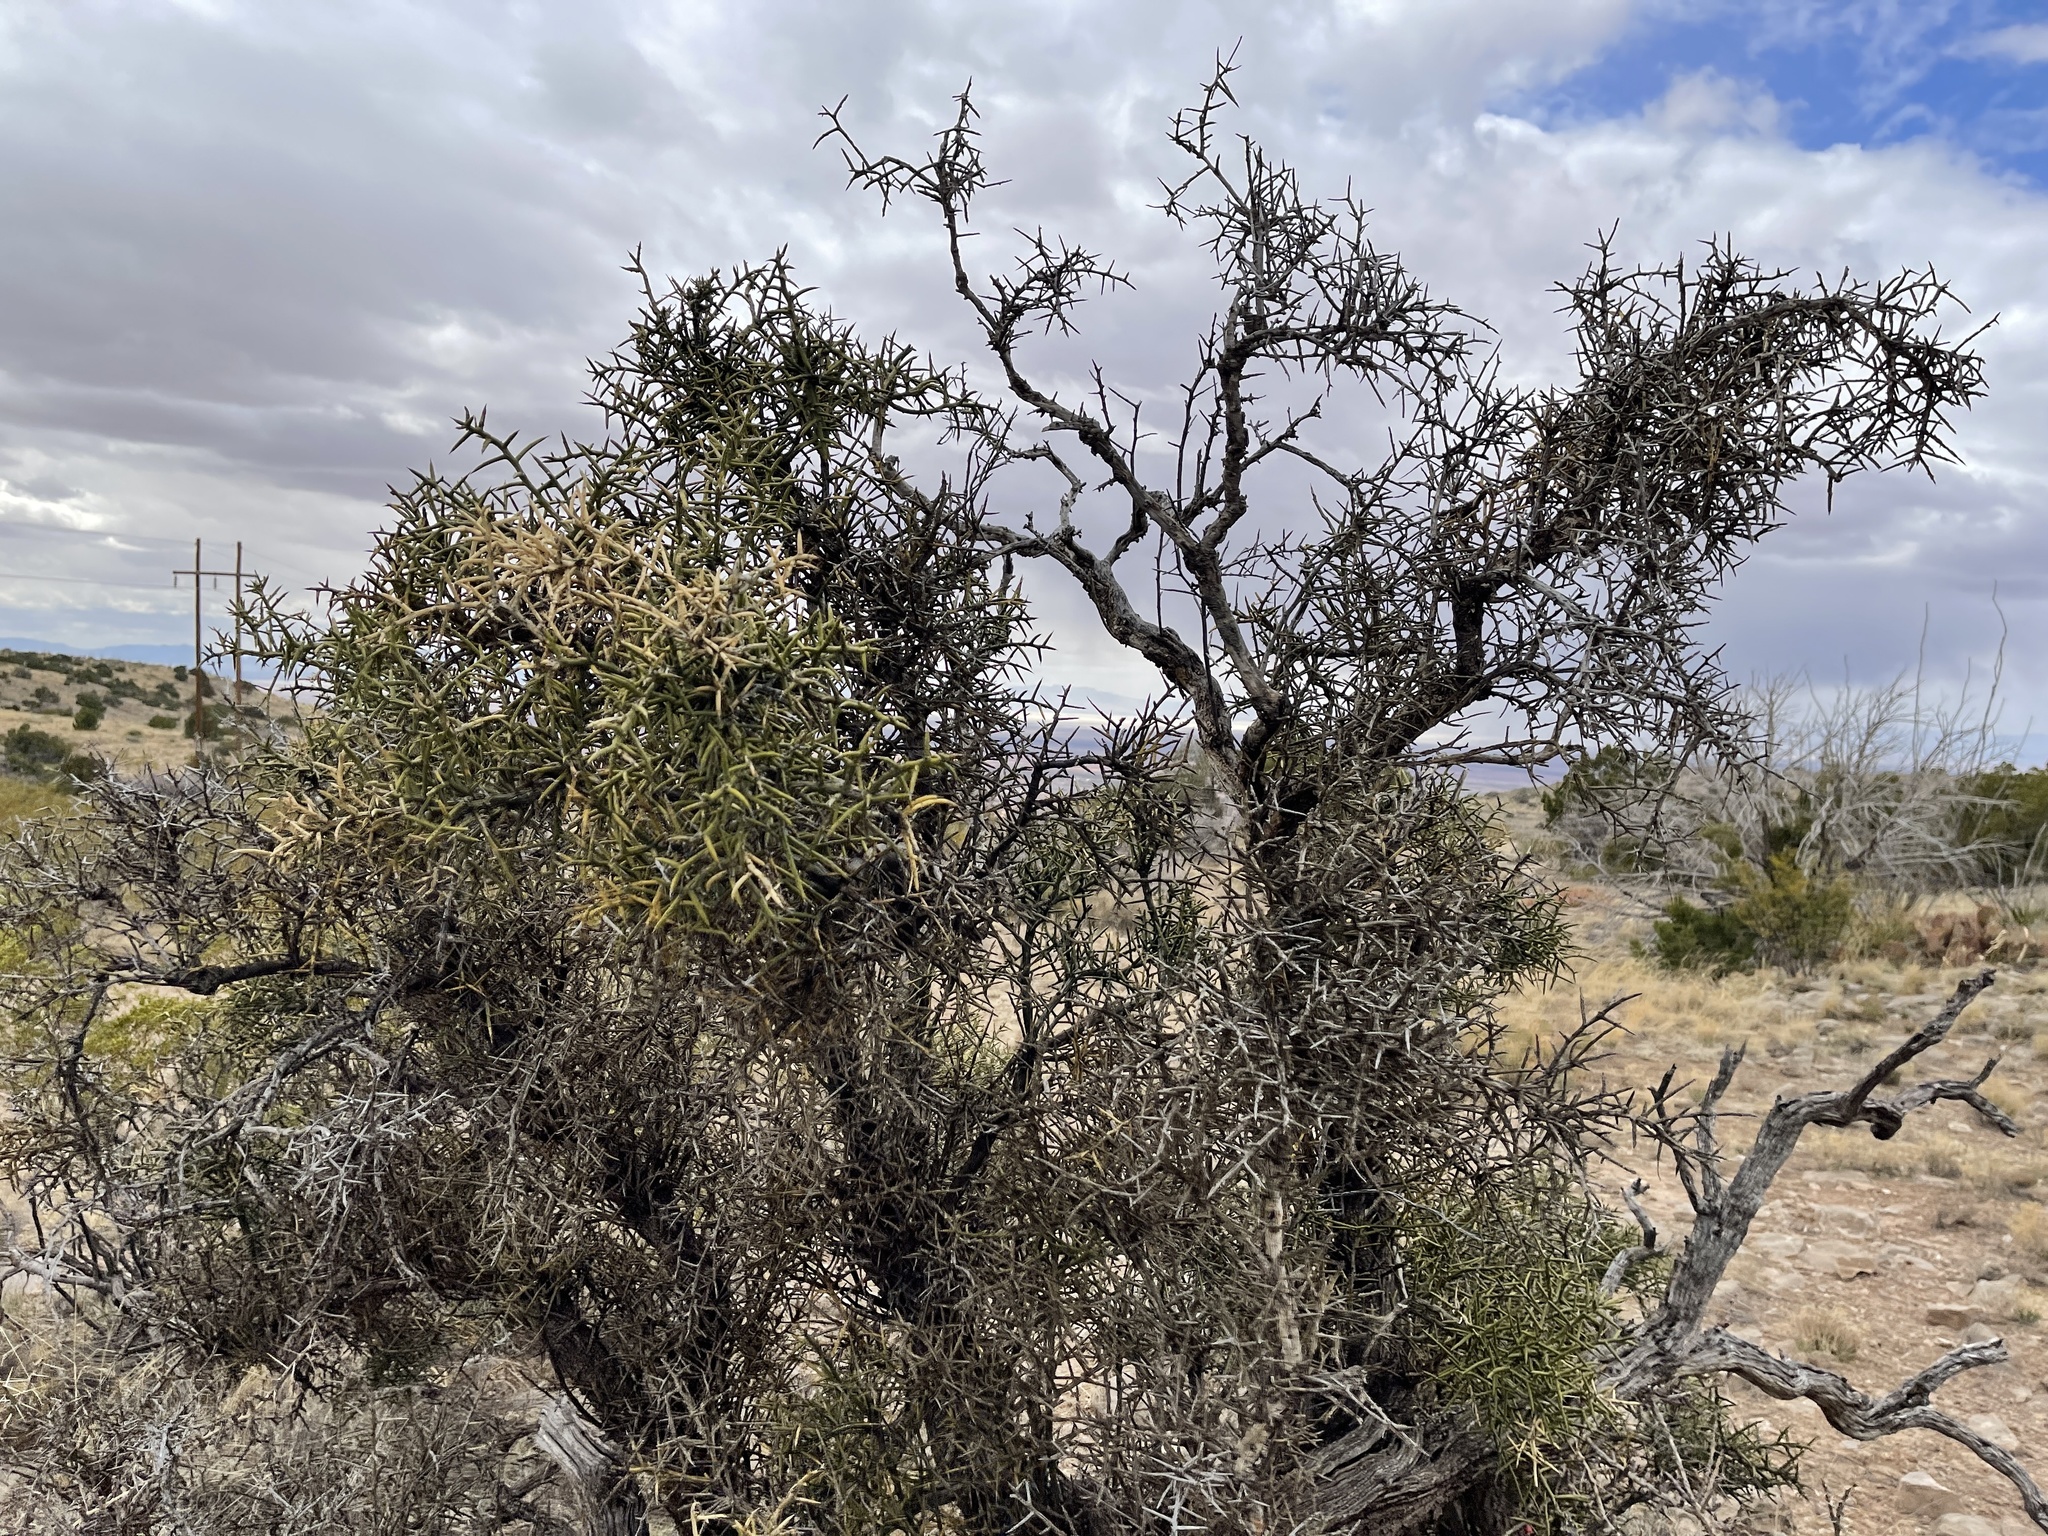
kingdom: Plantae
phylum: Tracheophyta
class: Magnoliopsida
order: Brassicales
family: Koeberliniaceae
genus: Koeberlinia
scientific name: Koeberlinia spinosa
